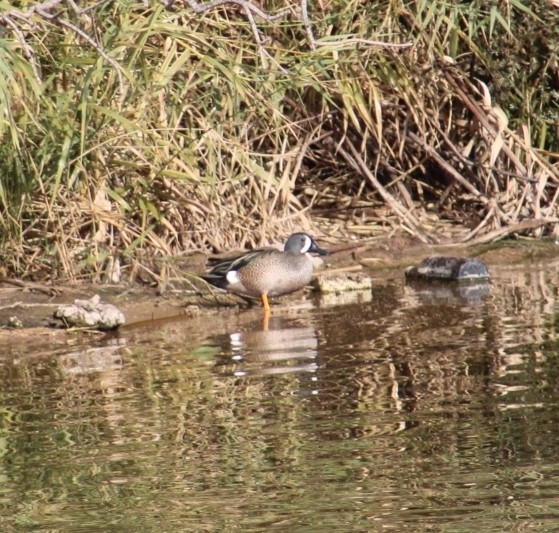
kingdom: Animalia
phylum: Chordata
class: Aves
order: Anseriformes
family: Anatidae
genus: Spatula
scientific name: Spatula discors
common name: Blue-winged teal
